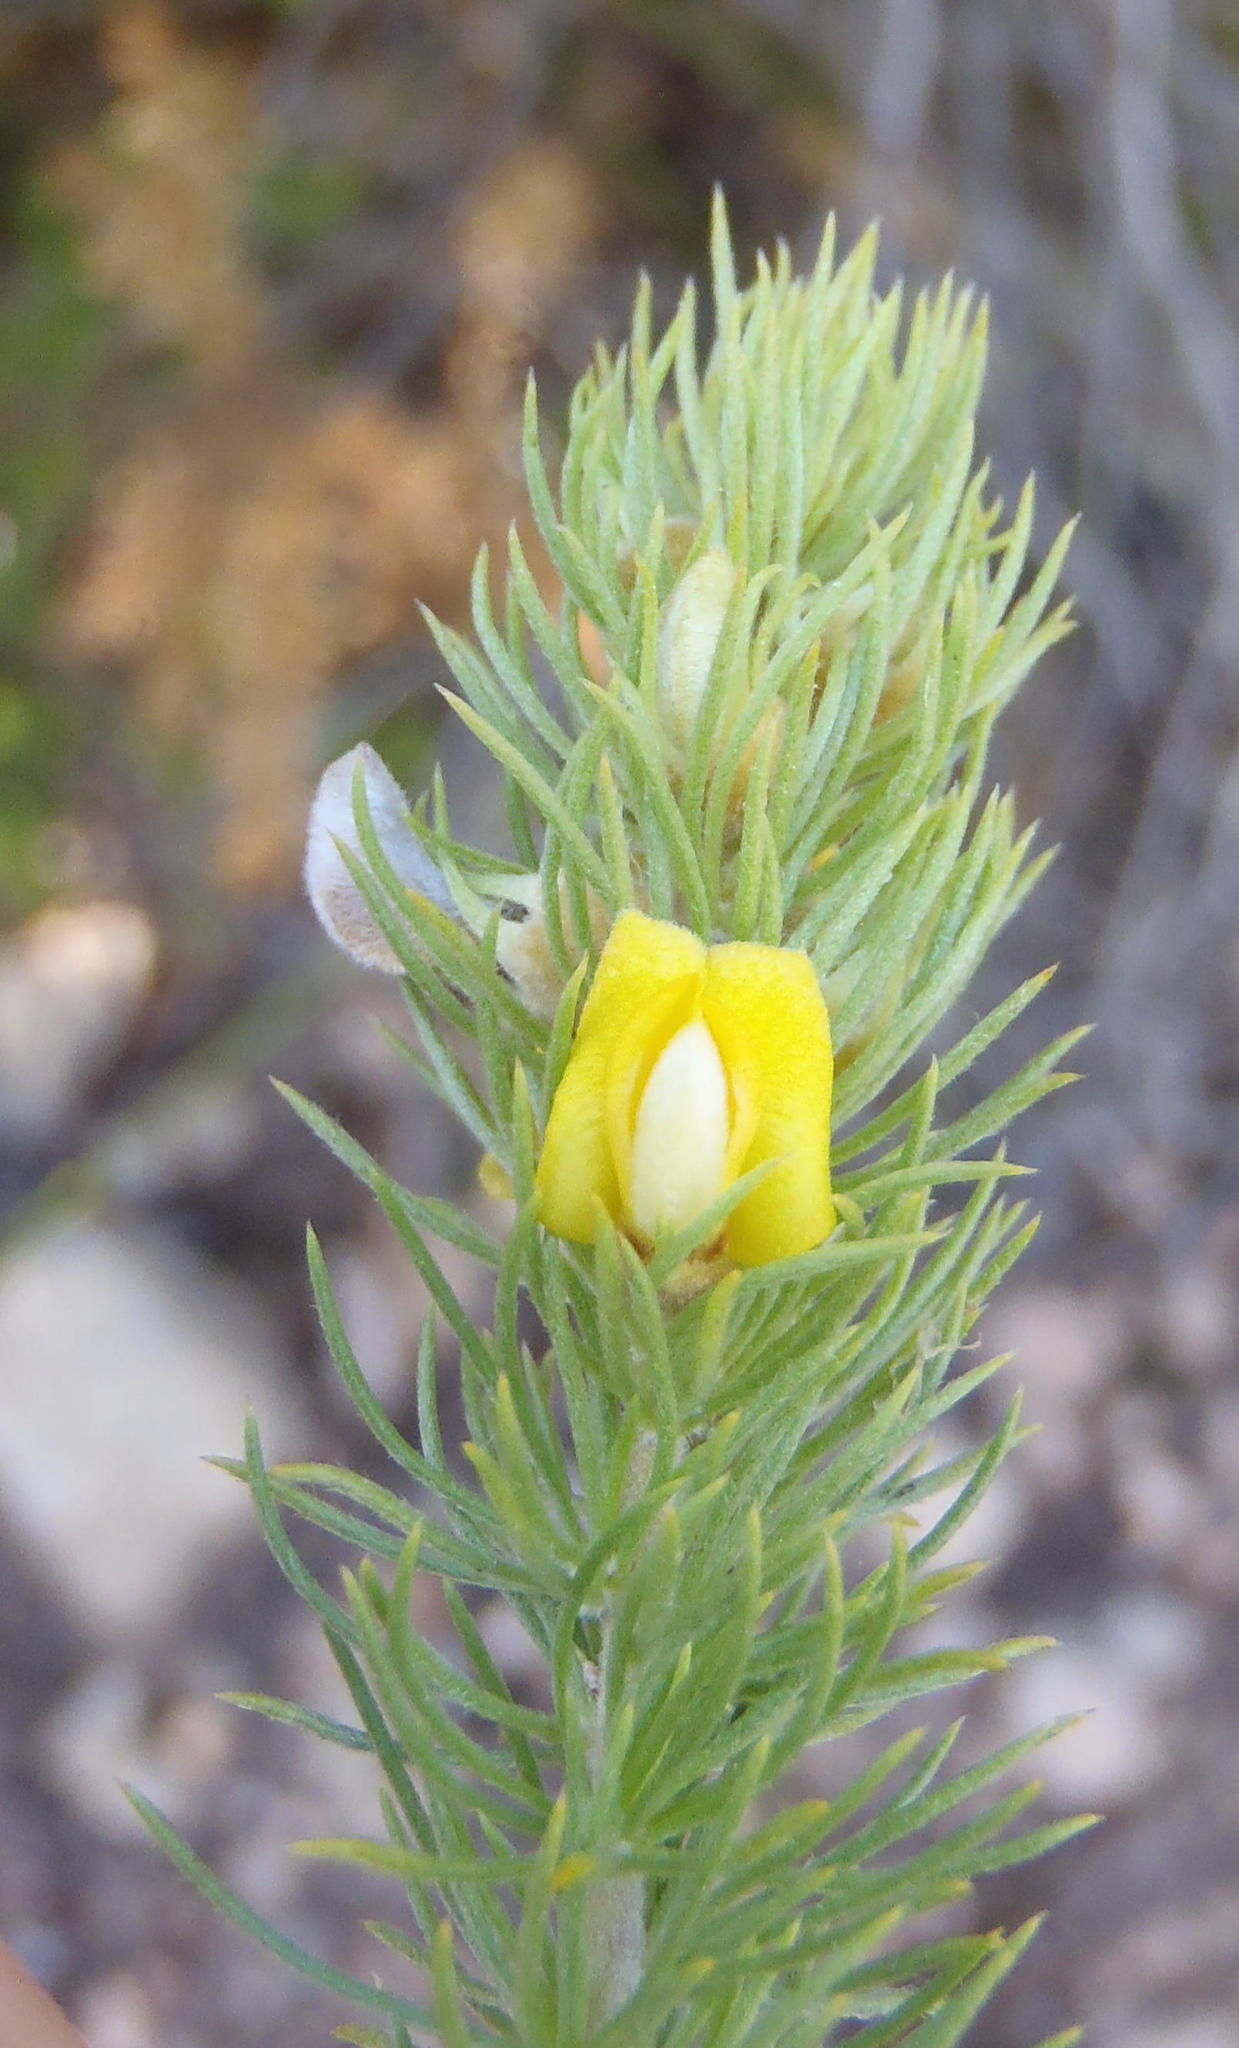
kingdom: Plantae
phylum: Tracheophyta
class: Magnoliopsida
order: Fabales
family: Fabaceae
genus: Aspalathus
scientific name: Aspalathus setacea
